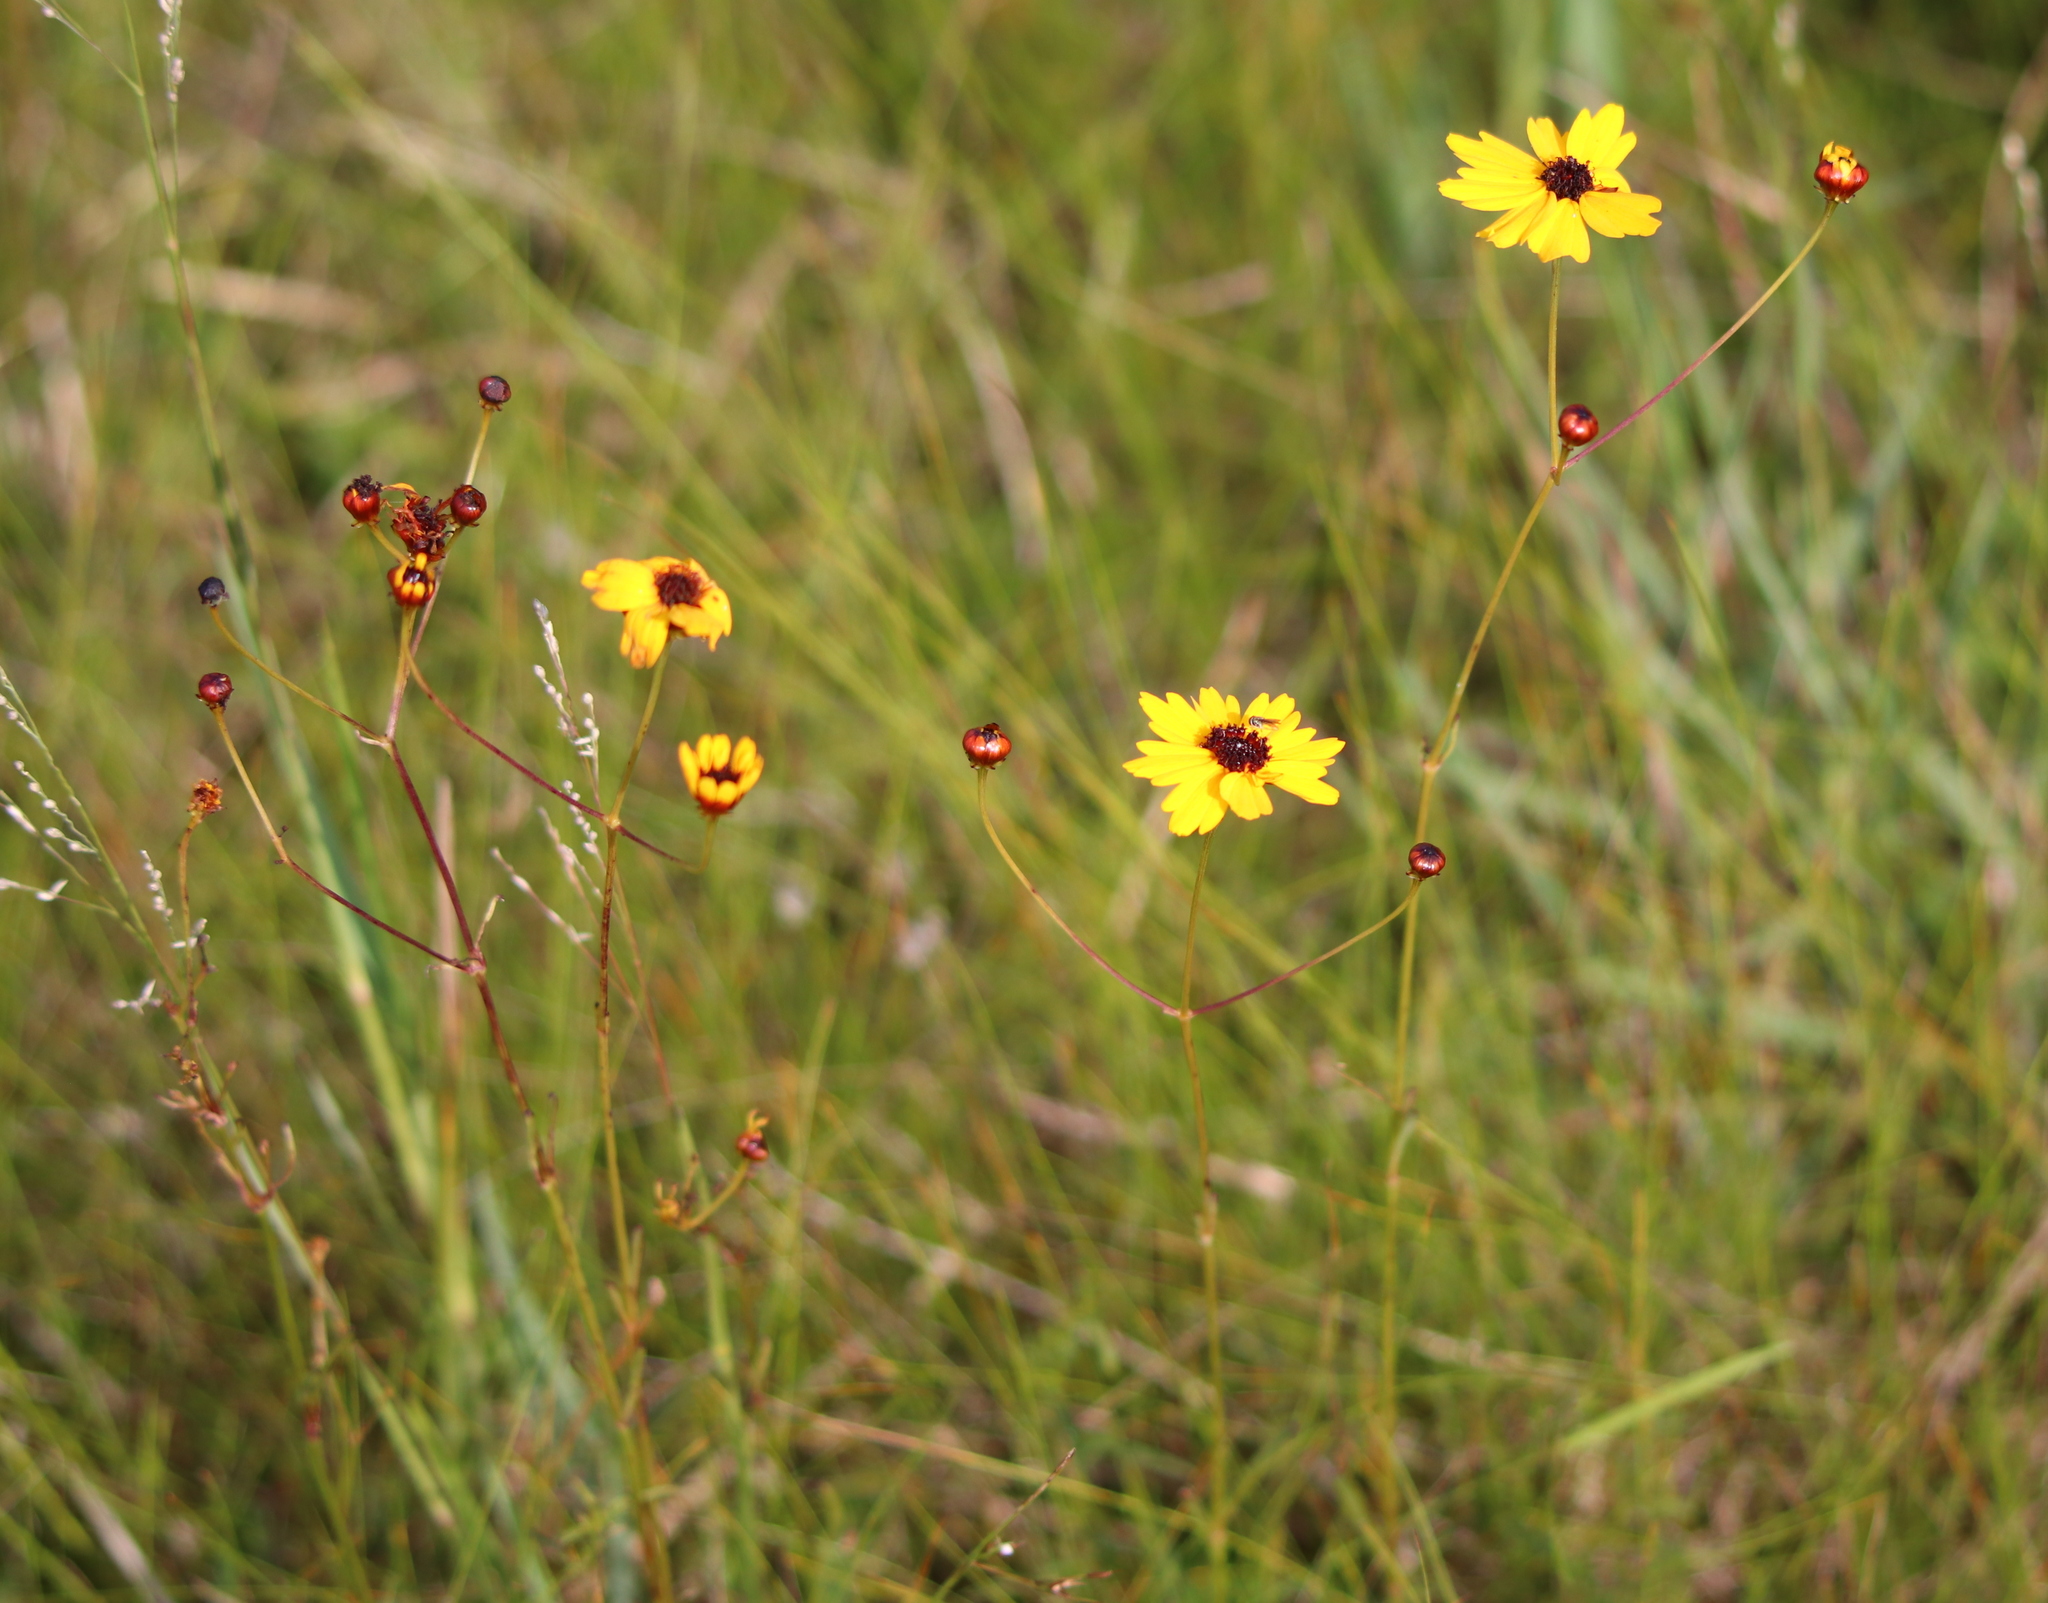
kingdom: Plantae
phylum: Tracheophyta
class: Magnoliopsida
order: Asterales
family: Asteraceae
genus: Coreopsis
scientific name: Coreopsis gladiata
